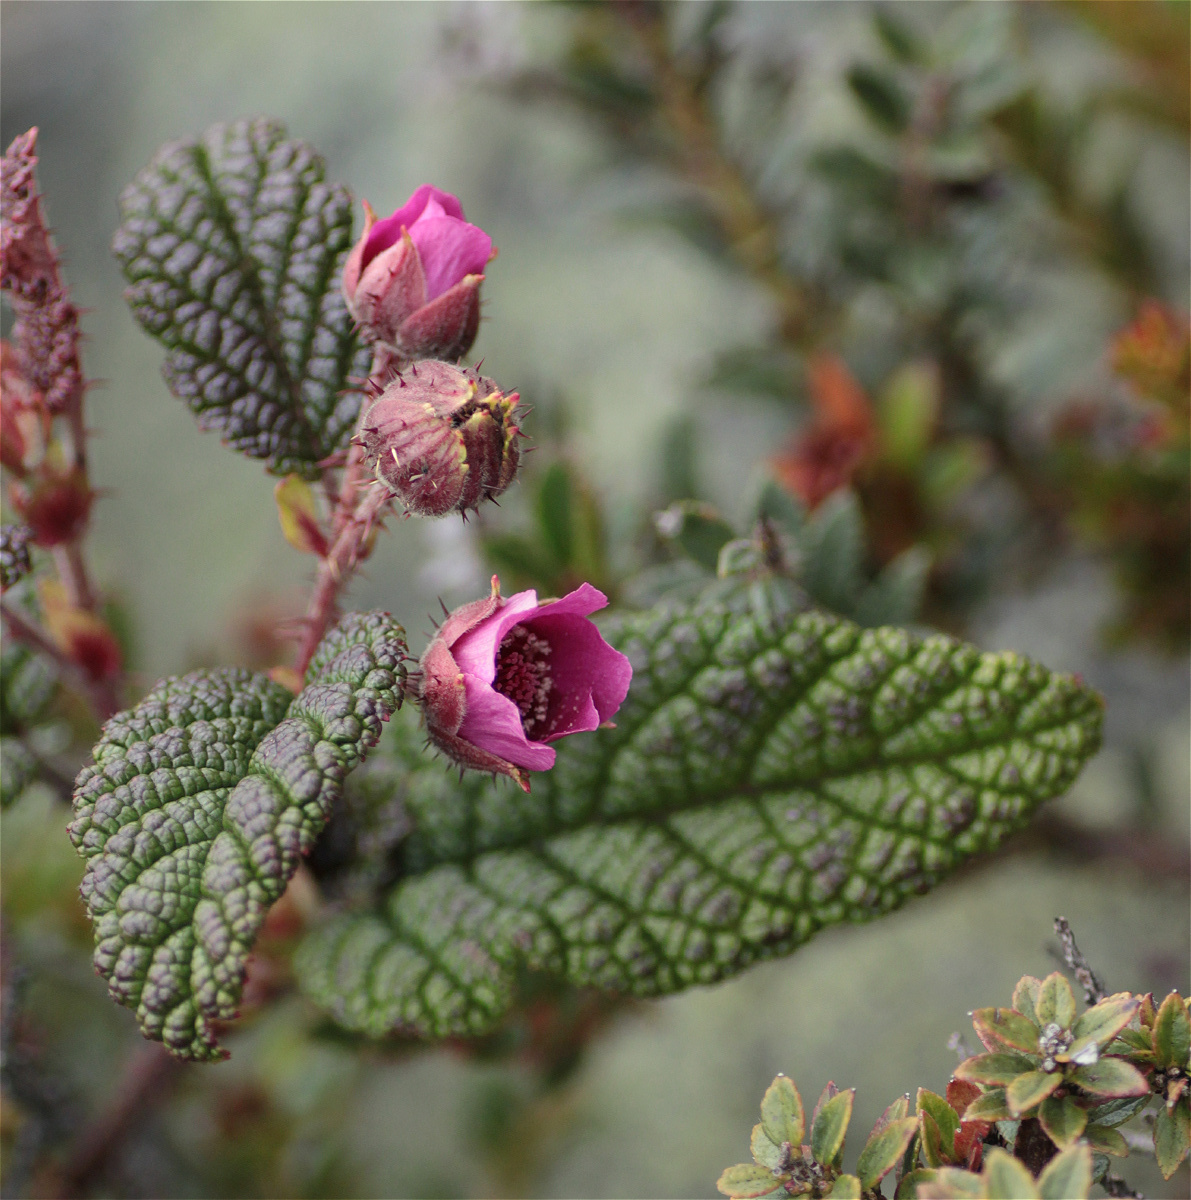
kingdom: Plantae
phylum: Tracheophyta
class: Magnoliopsida
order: Rosales
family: Rosaceae
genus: Rubus
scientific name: Rubus acanthophyllos
